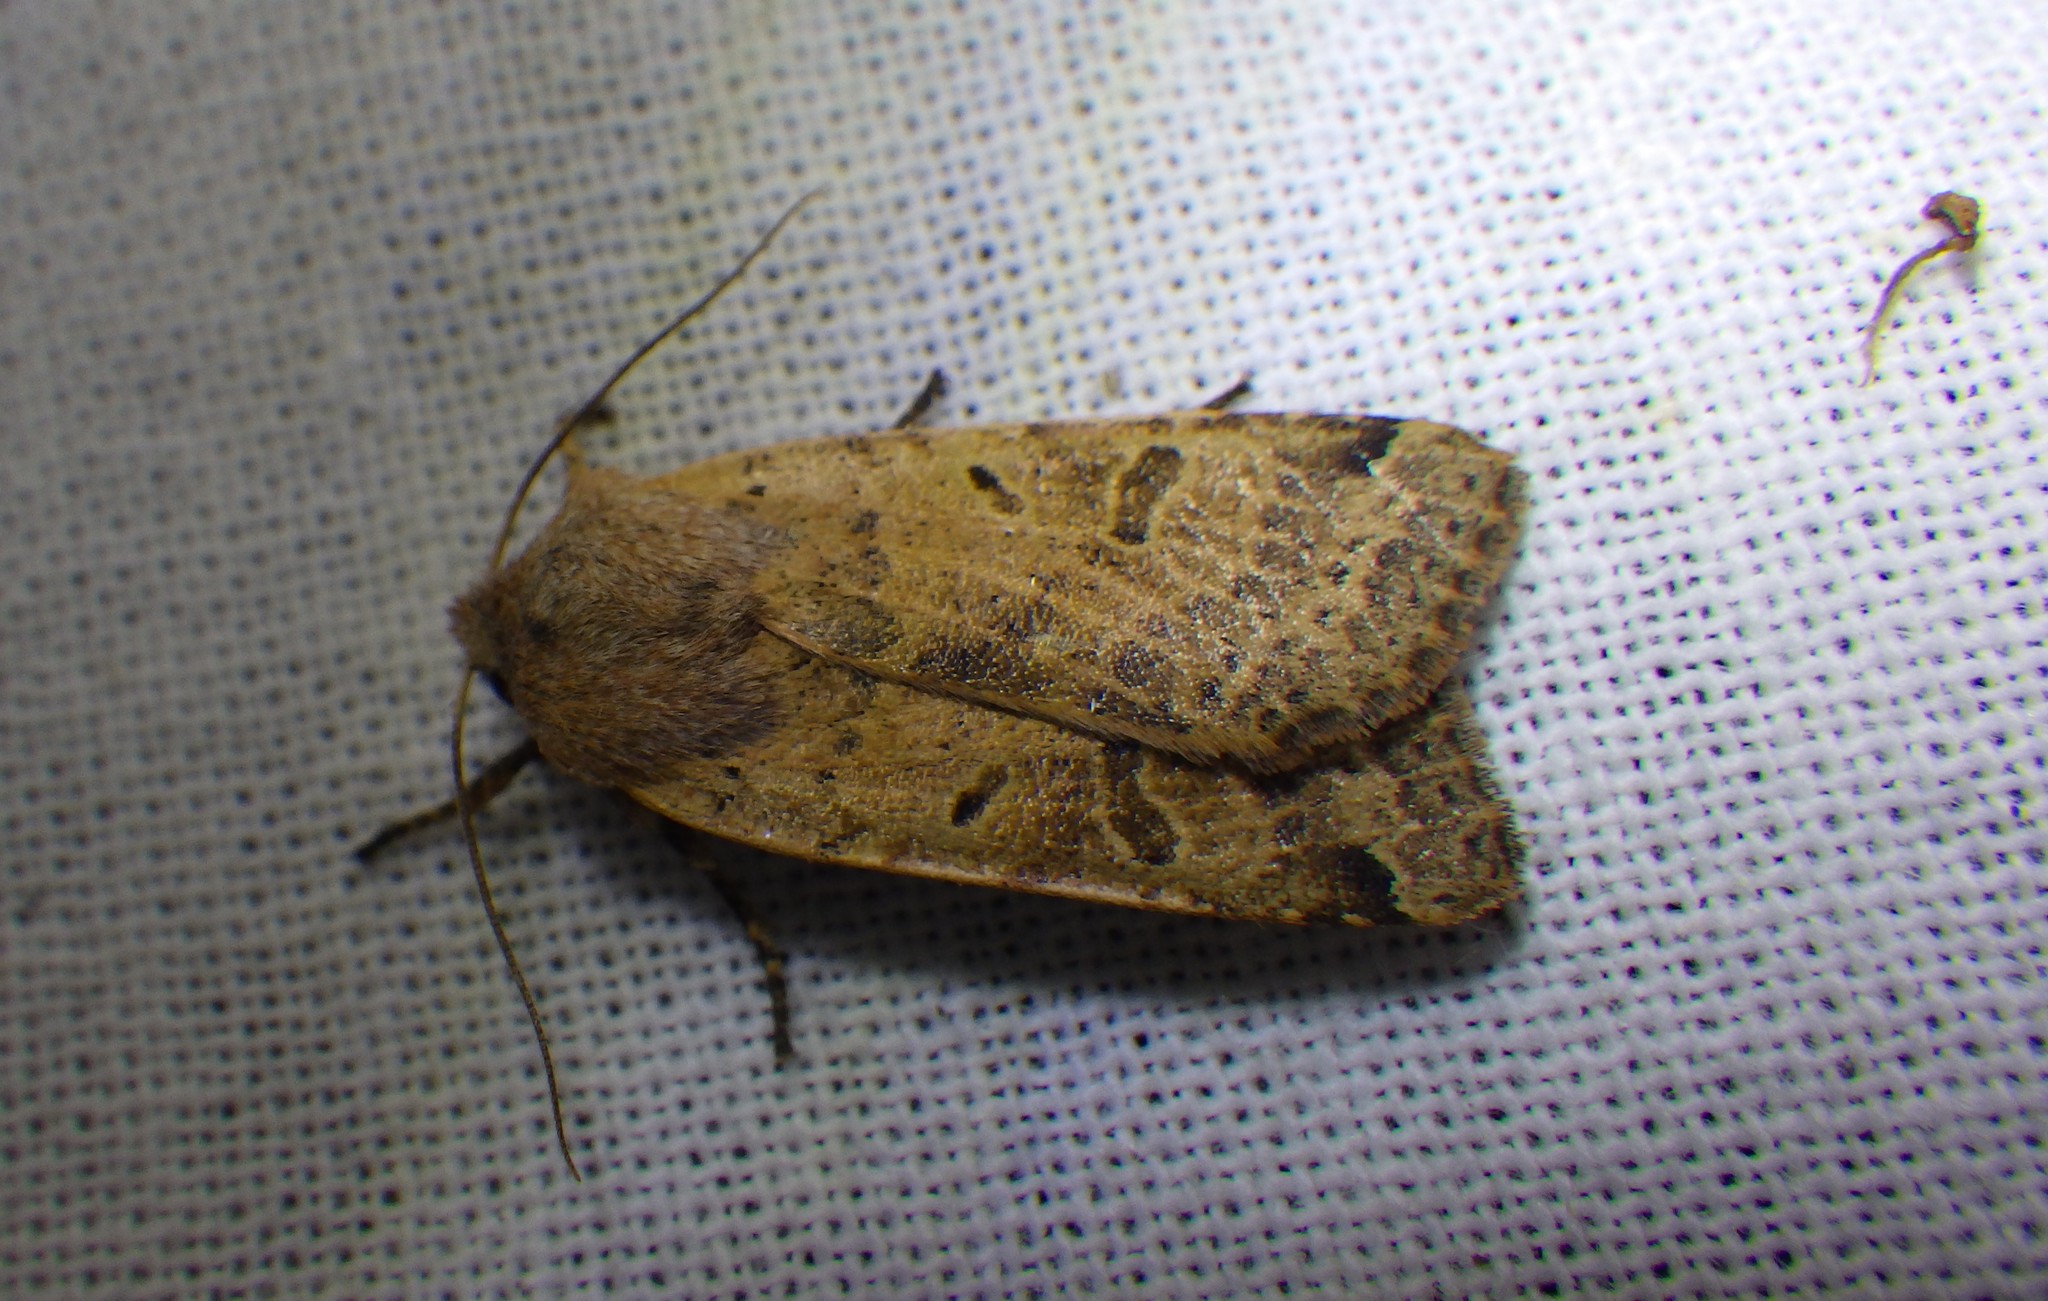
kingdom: Animalia
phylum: Arthropoda
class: Insecta
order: Lepidoptera
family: Noctuidae
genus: Agrochola
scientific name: Agrochola lychnidis
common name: Beaded chestnut
